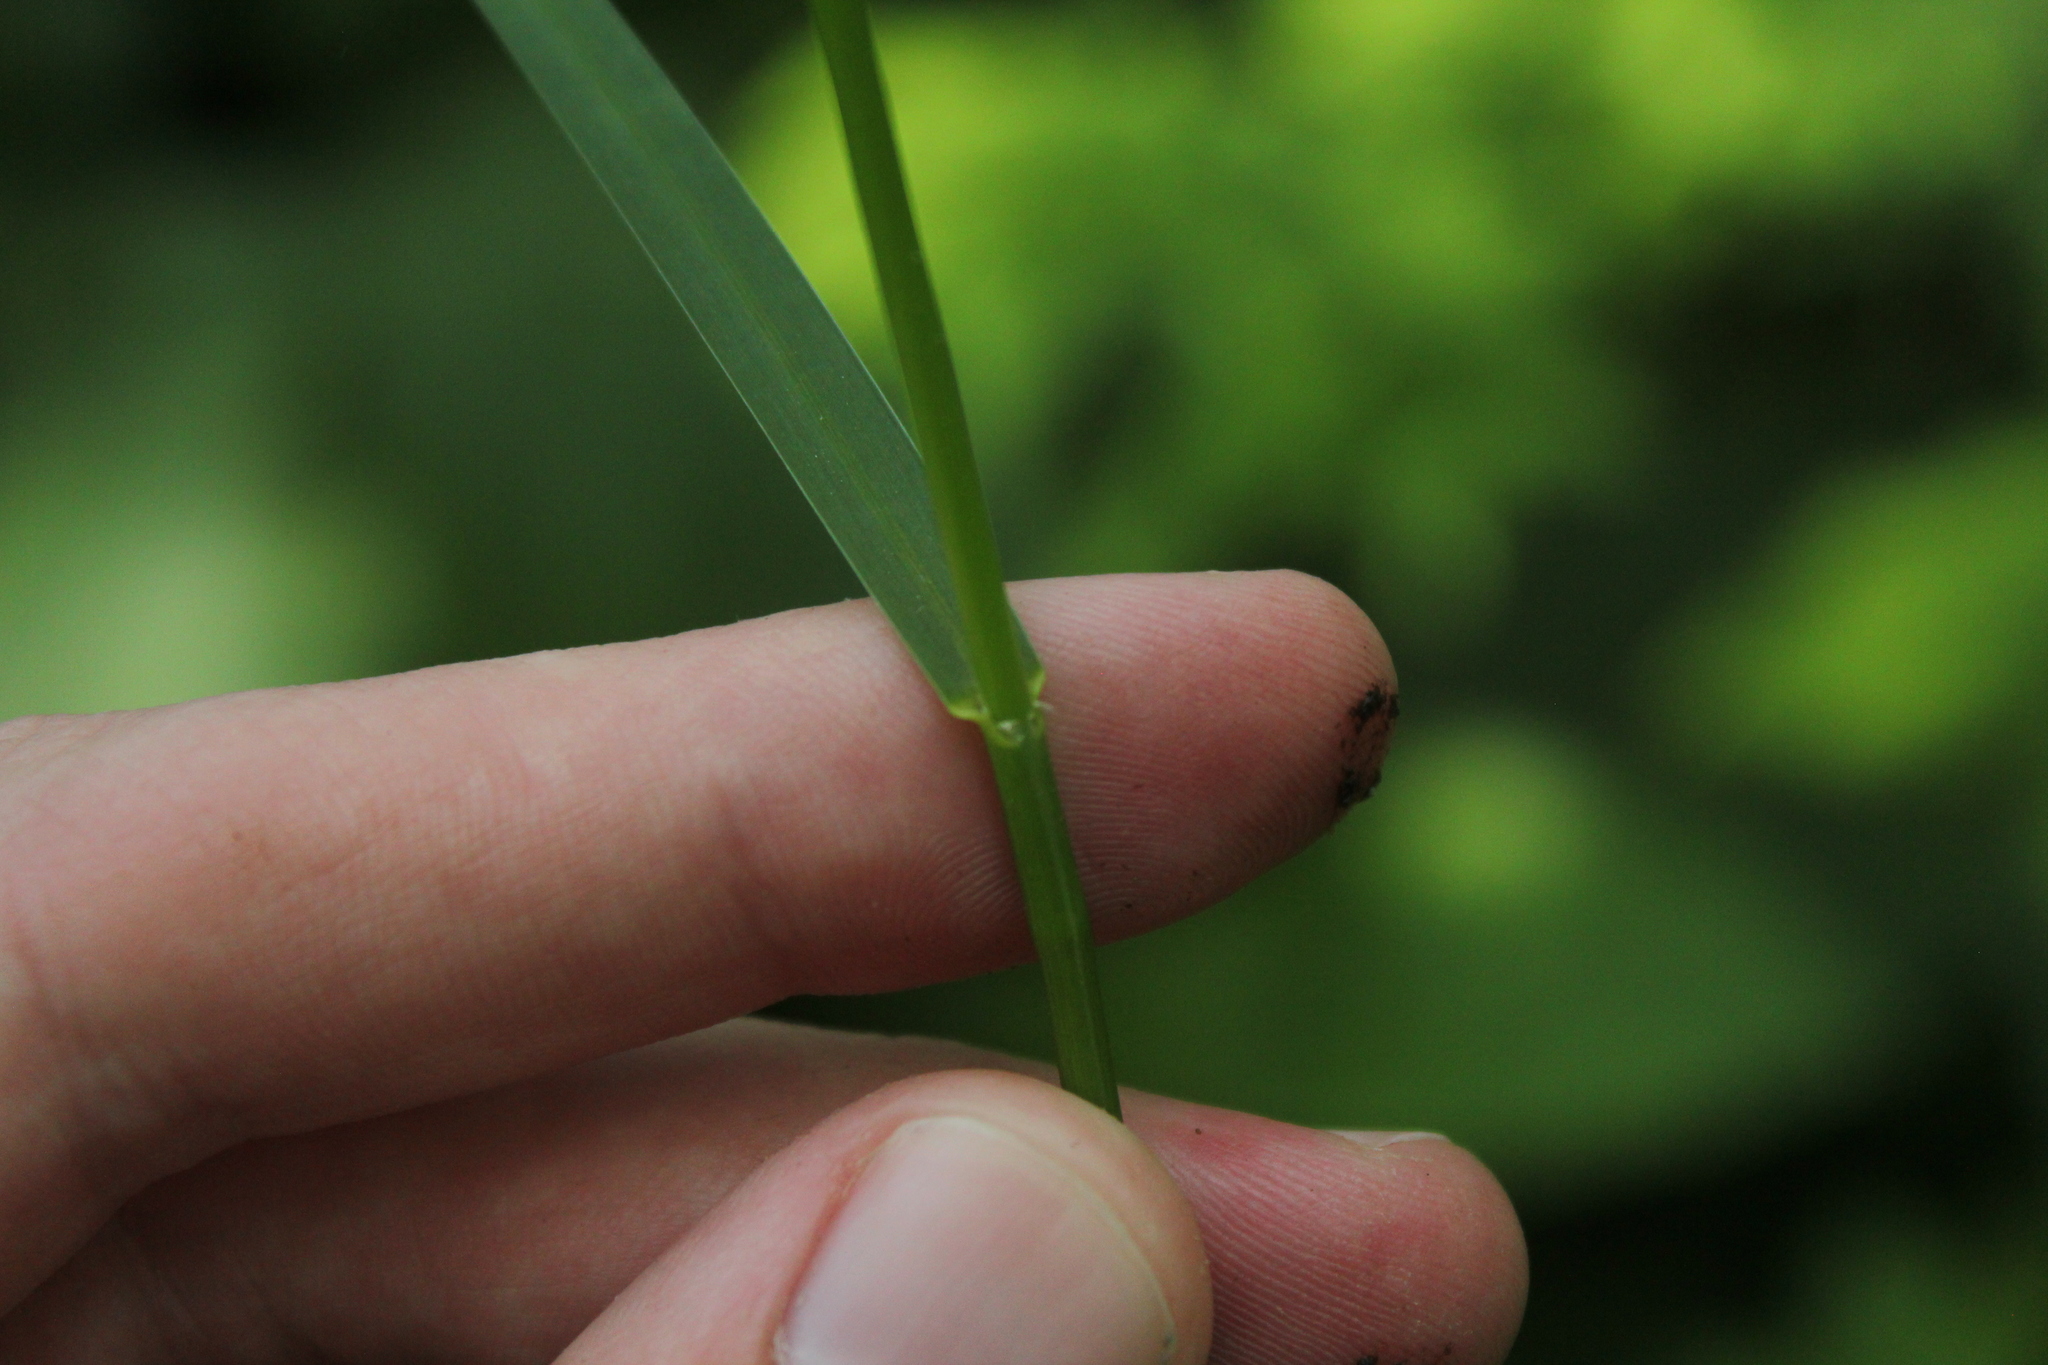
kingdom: Plantae
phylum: Tracheophyta
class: Liliopsida
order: Poales
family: Poaceae
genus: Glyceria
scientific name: Glyceria striata
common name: Fowl manna grass
